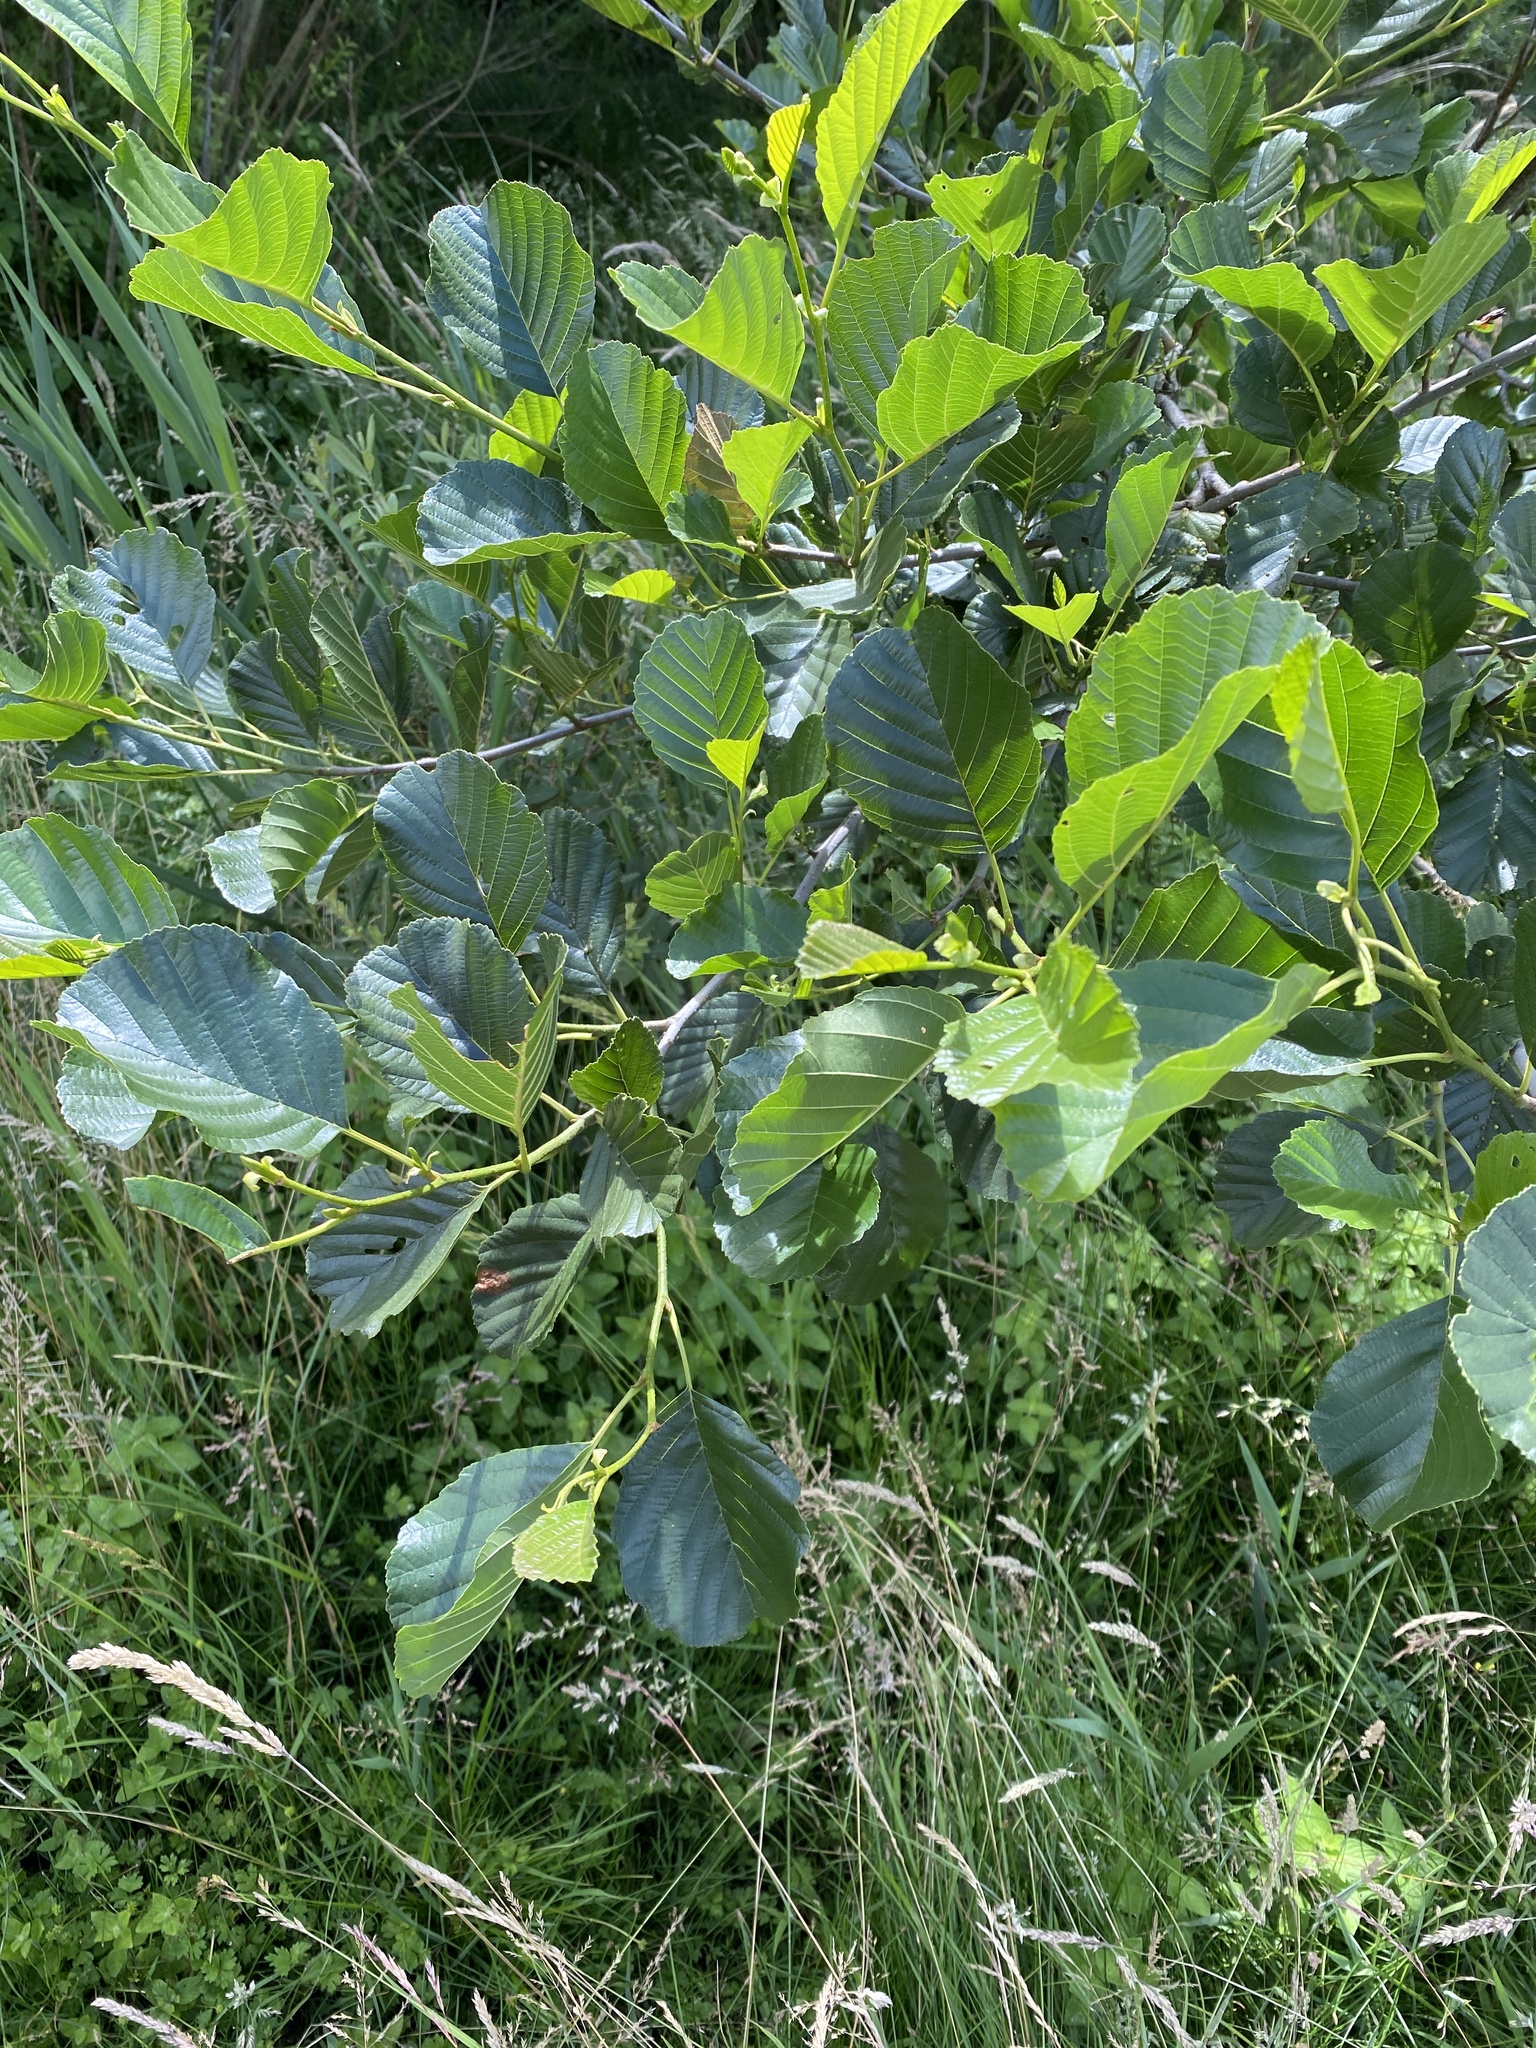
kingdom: Plantae
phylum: Tracheophyta
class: Magnoliopsida
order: Fagales
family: Betulaceae
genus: Alnus
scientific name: Alnus glutinosa
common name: Black alder
